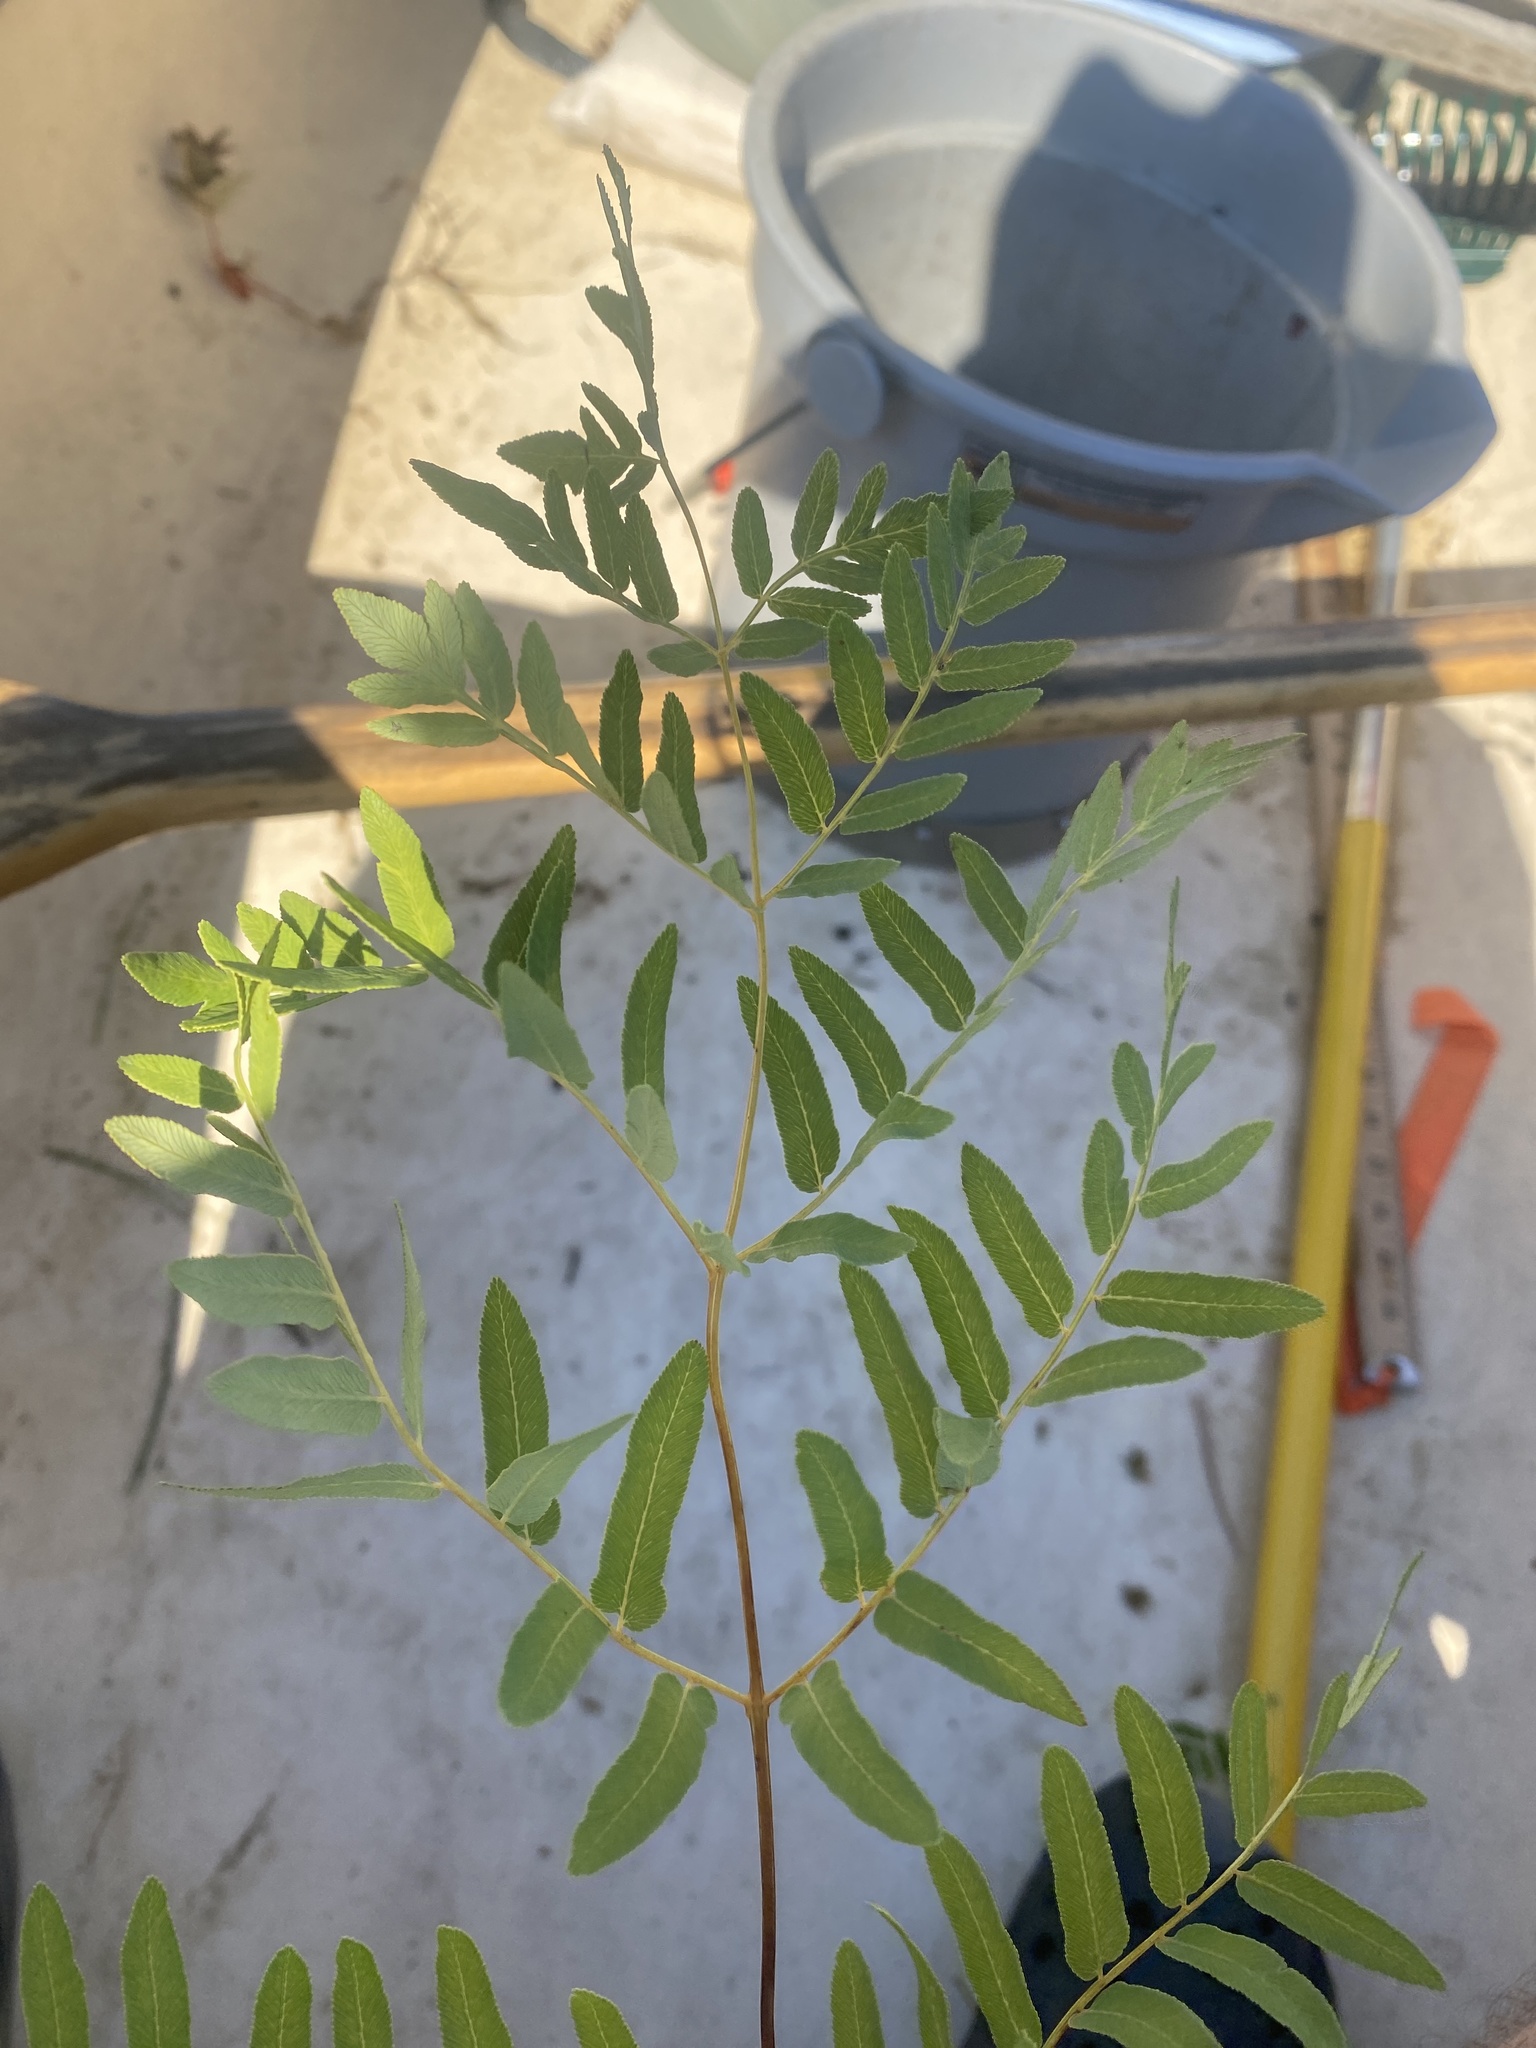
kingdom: Plantae
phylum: Tracheophyta
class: Polypodiopsida
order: Osmundales
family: Osmundaceae
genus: Osmunda
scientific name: Osmunda spectabilis
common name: American royal fern
